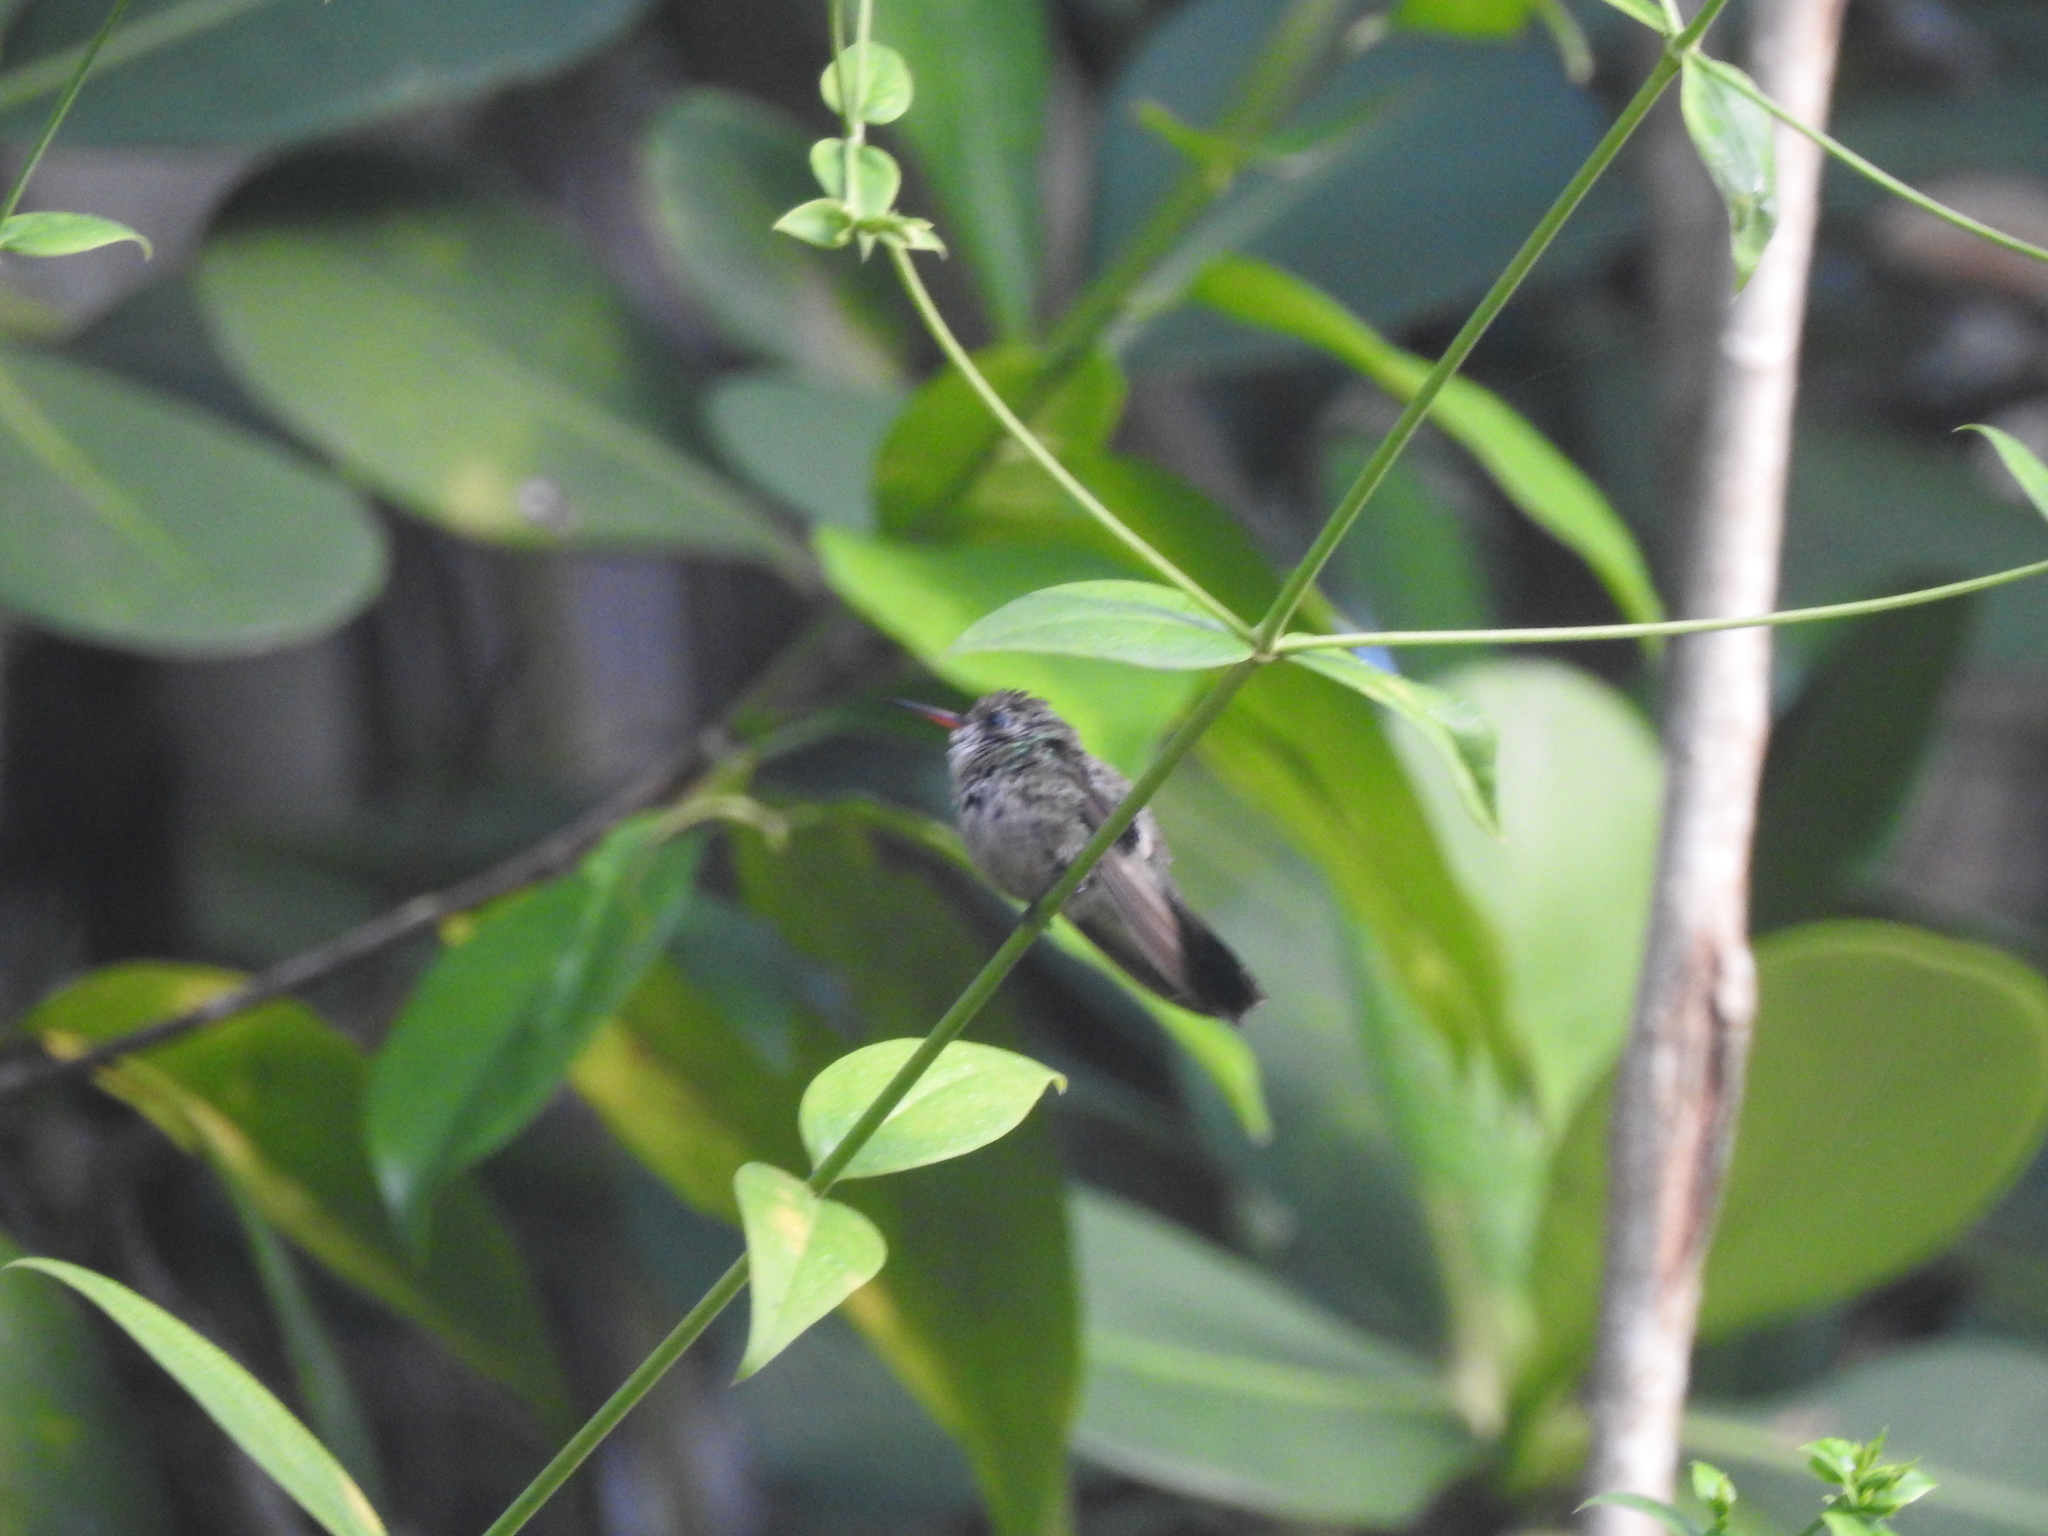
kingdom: Animalia
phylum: Chordata
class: Aves
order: Apodiformes
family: Trochilidae
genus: Cynanthus
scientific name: Cynanthus canivetii
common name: Canivet's emerald
